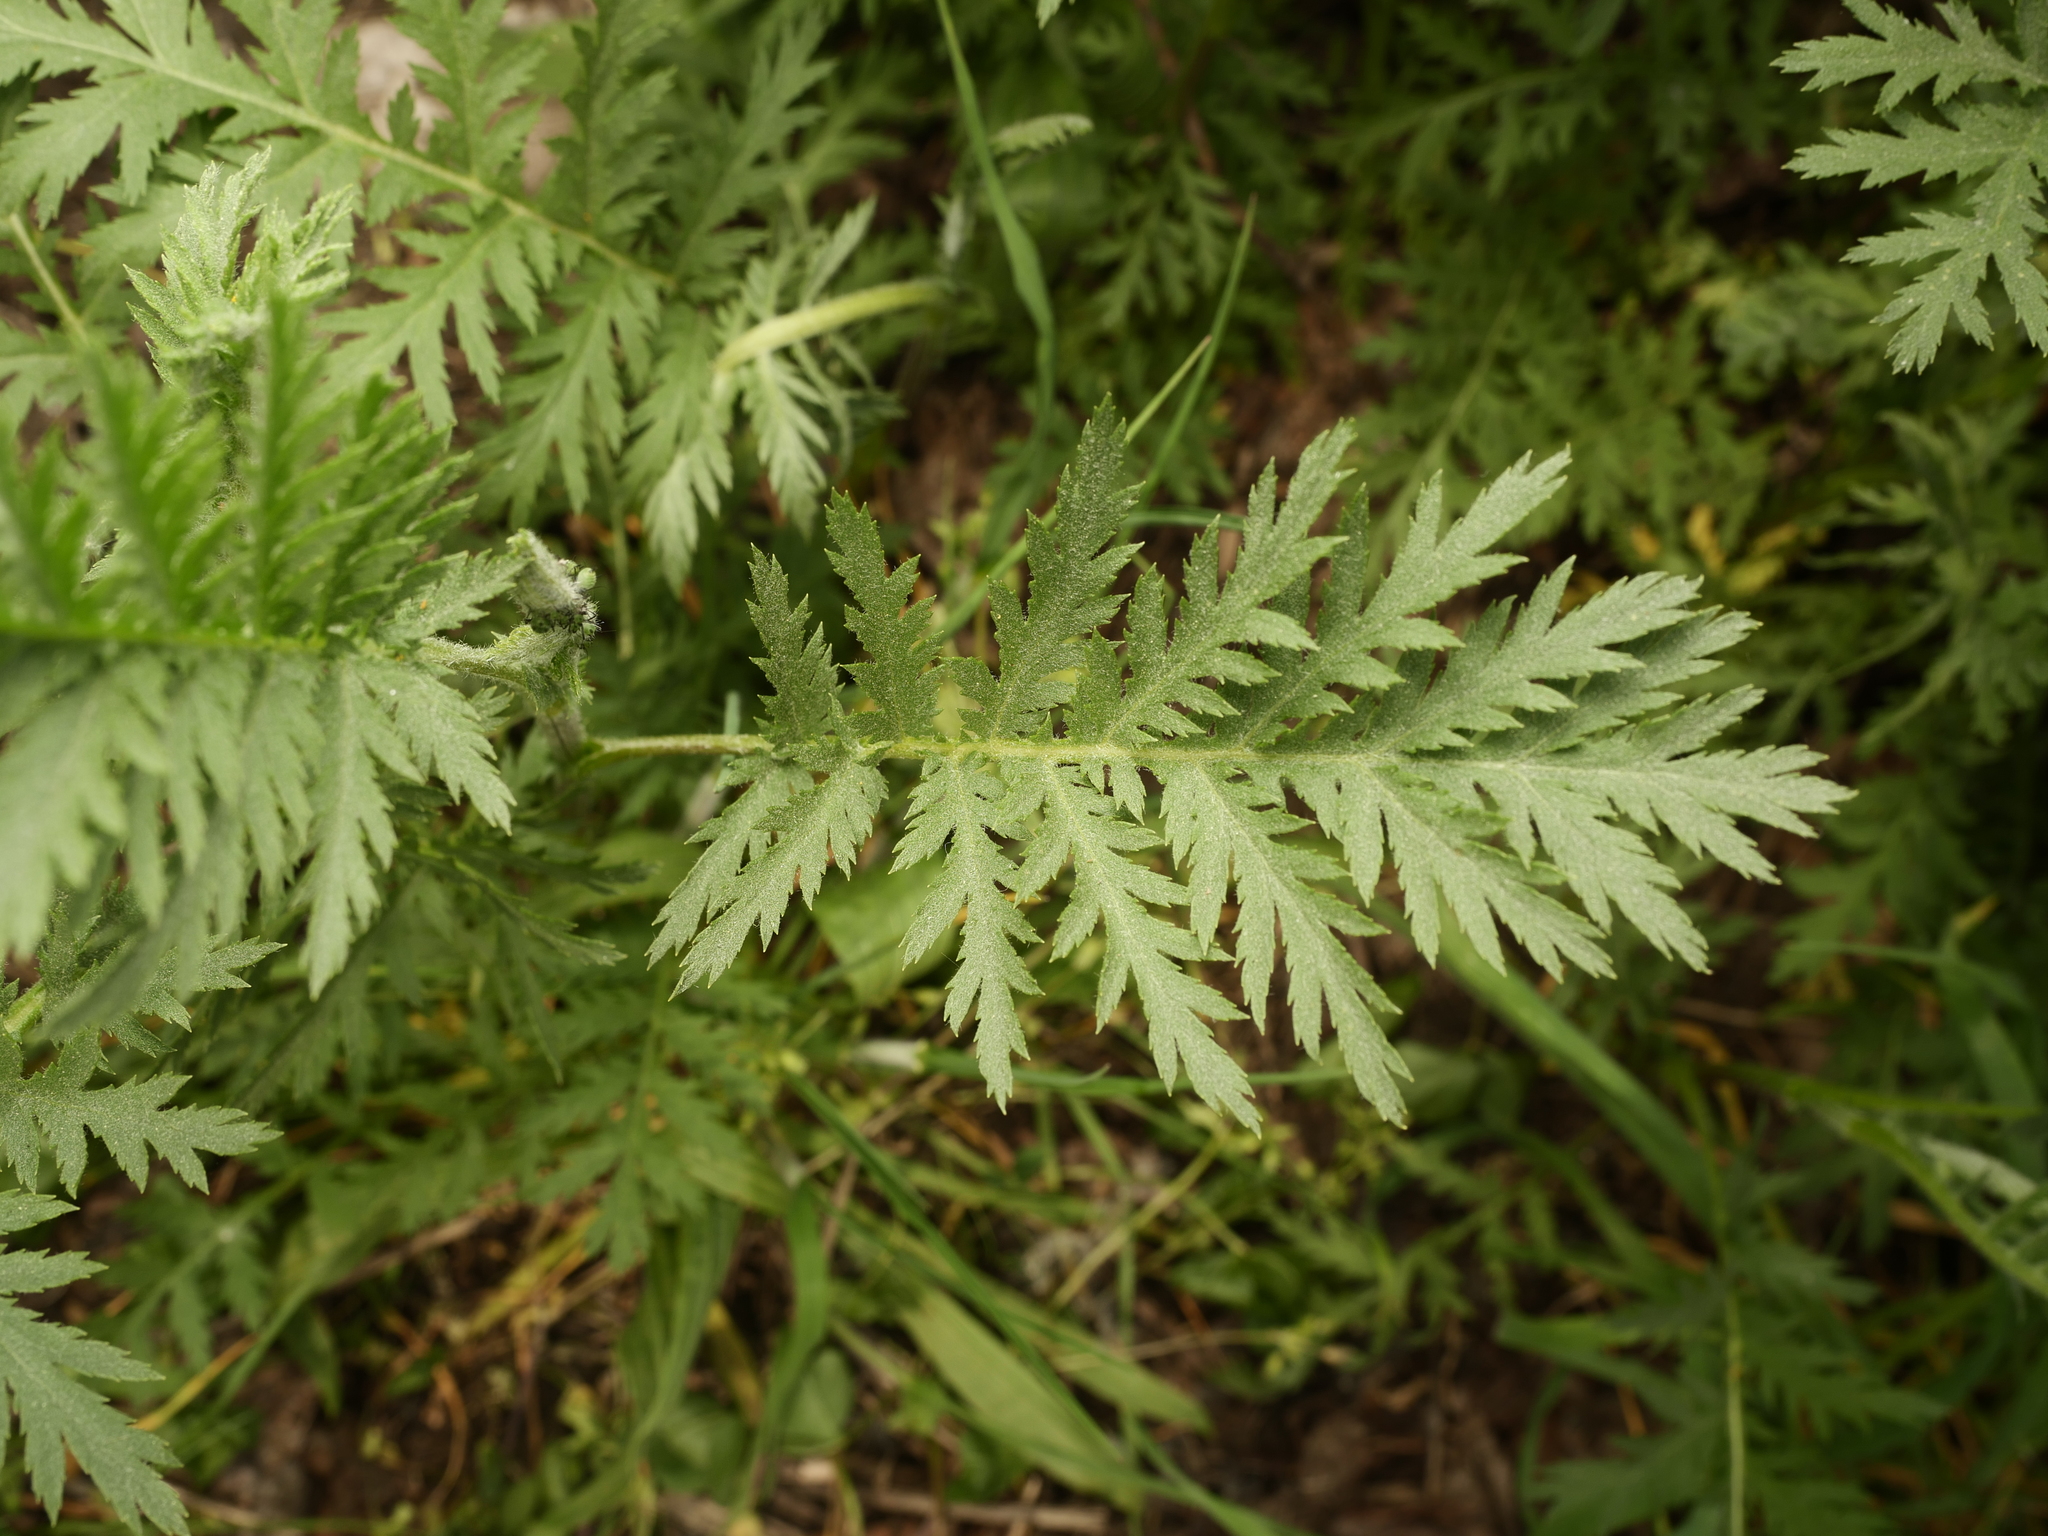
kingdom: Plantae
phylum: Tracheophyta
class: Magnoliopsida
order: Asterales
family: Asteraceae
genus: Tanacetum
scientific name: Tanacetum vulgare
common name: Common tansy
